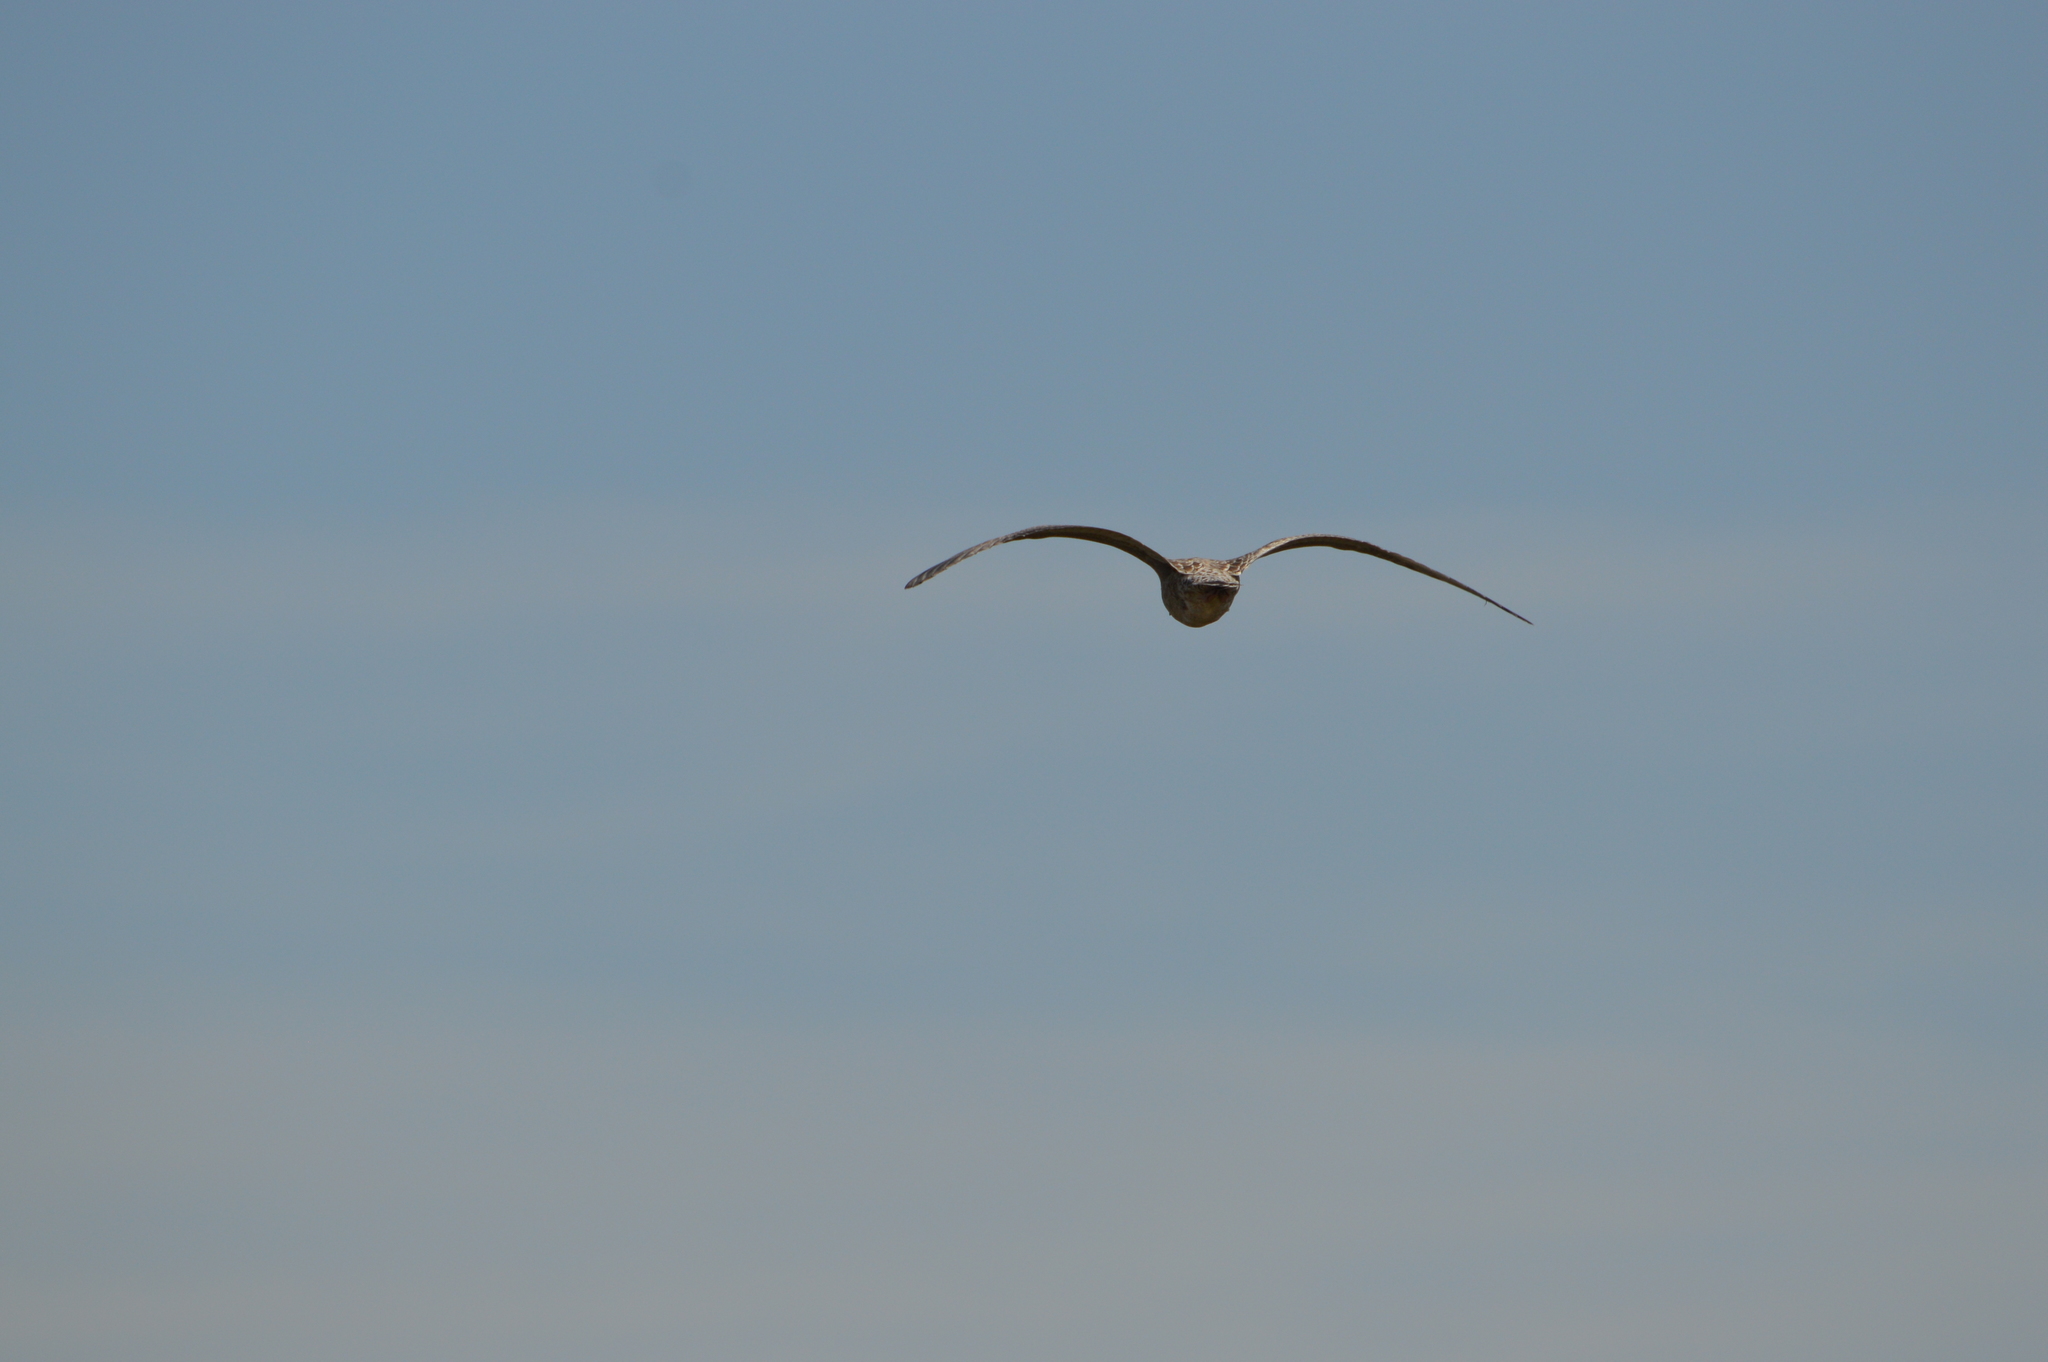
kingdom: Animalia
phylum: Chordata
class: Aves
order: Charadriiformes
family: Laridae
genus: Larus
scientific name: Larus
